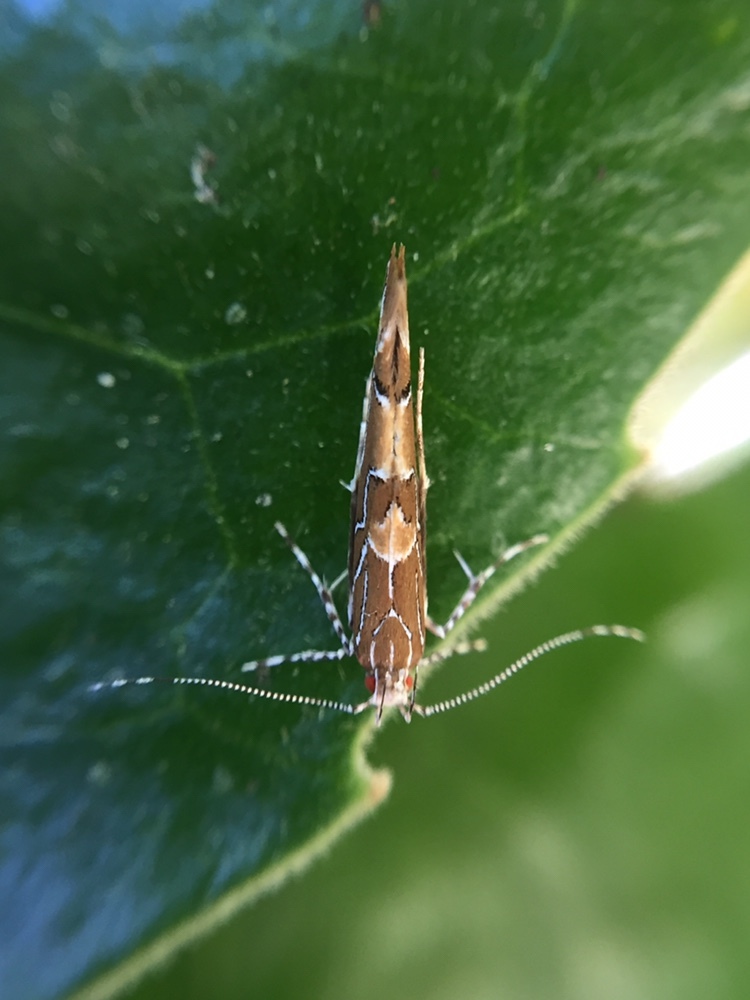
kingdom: Animalia
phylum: Arthropoda
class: Insecta
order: Lepidoptera
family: Cosmopterigidae
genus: Pyroderces
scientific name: Pyroderces apparitella
